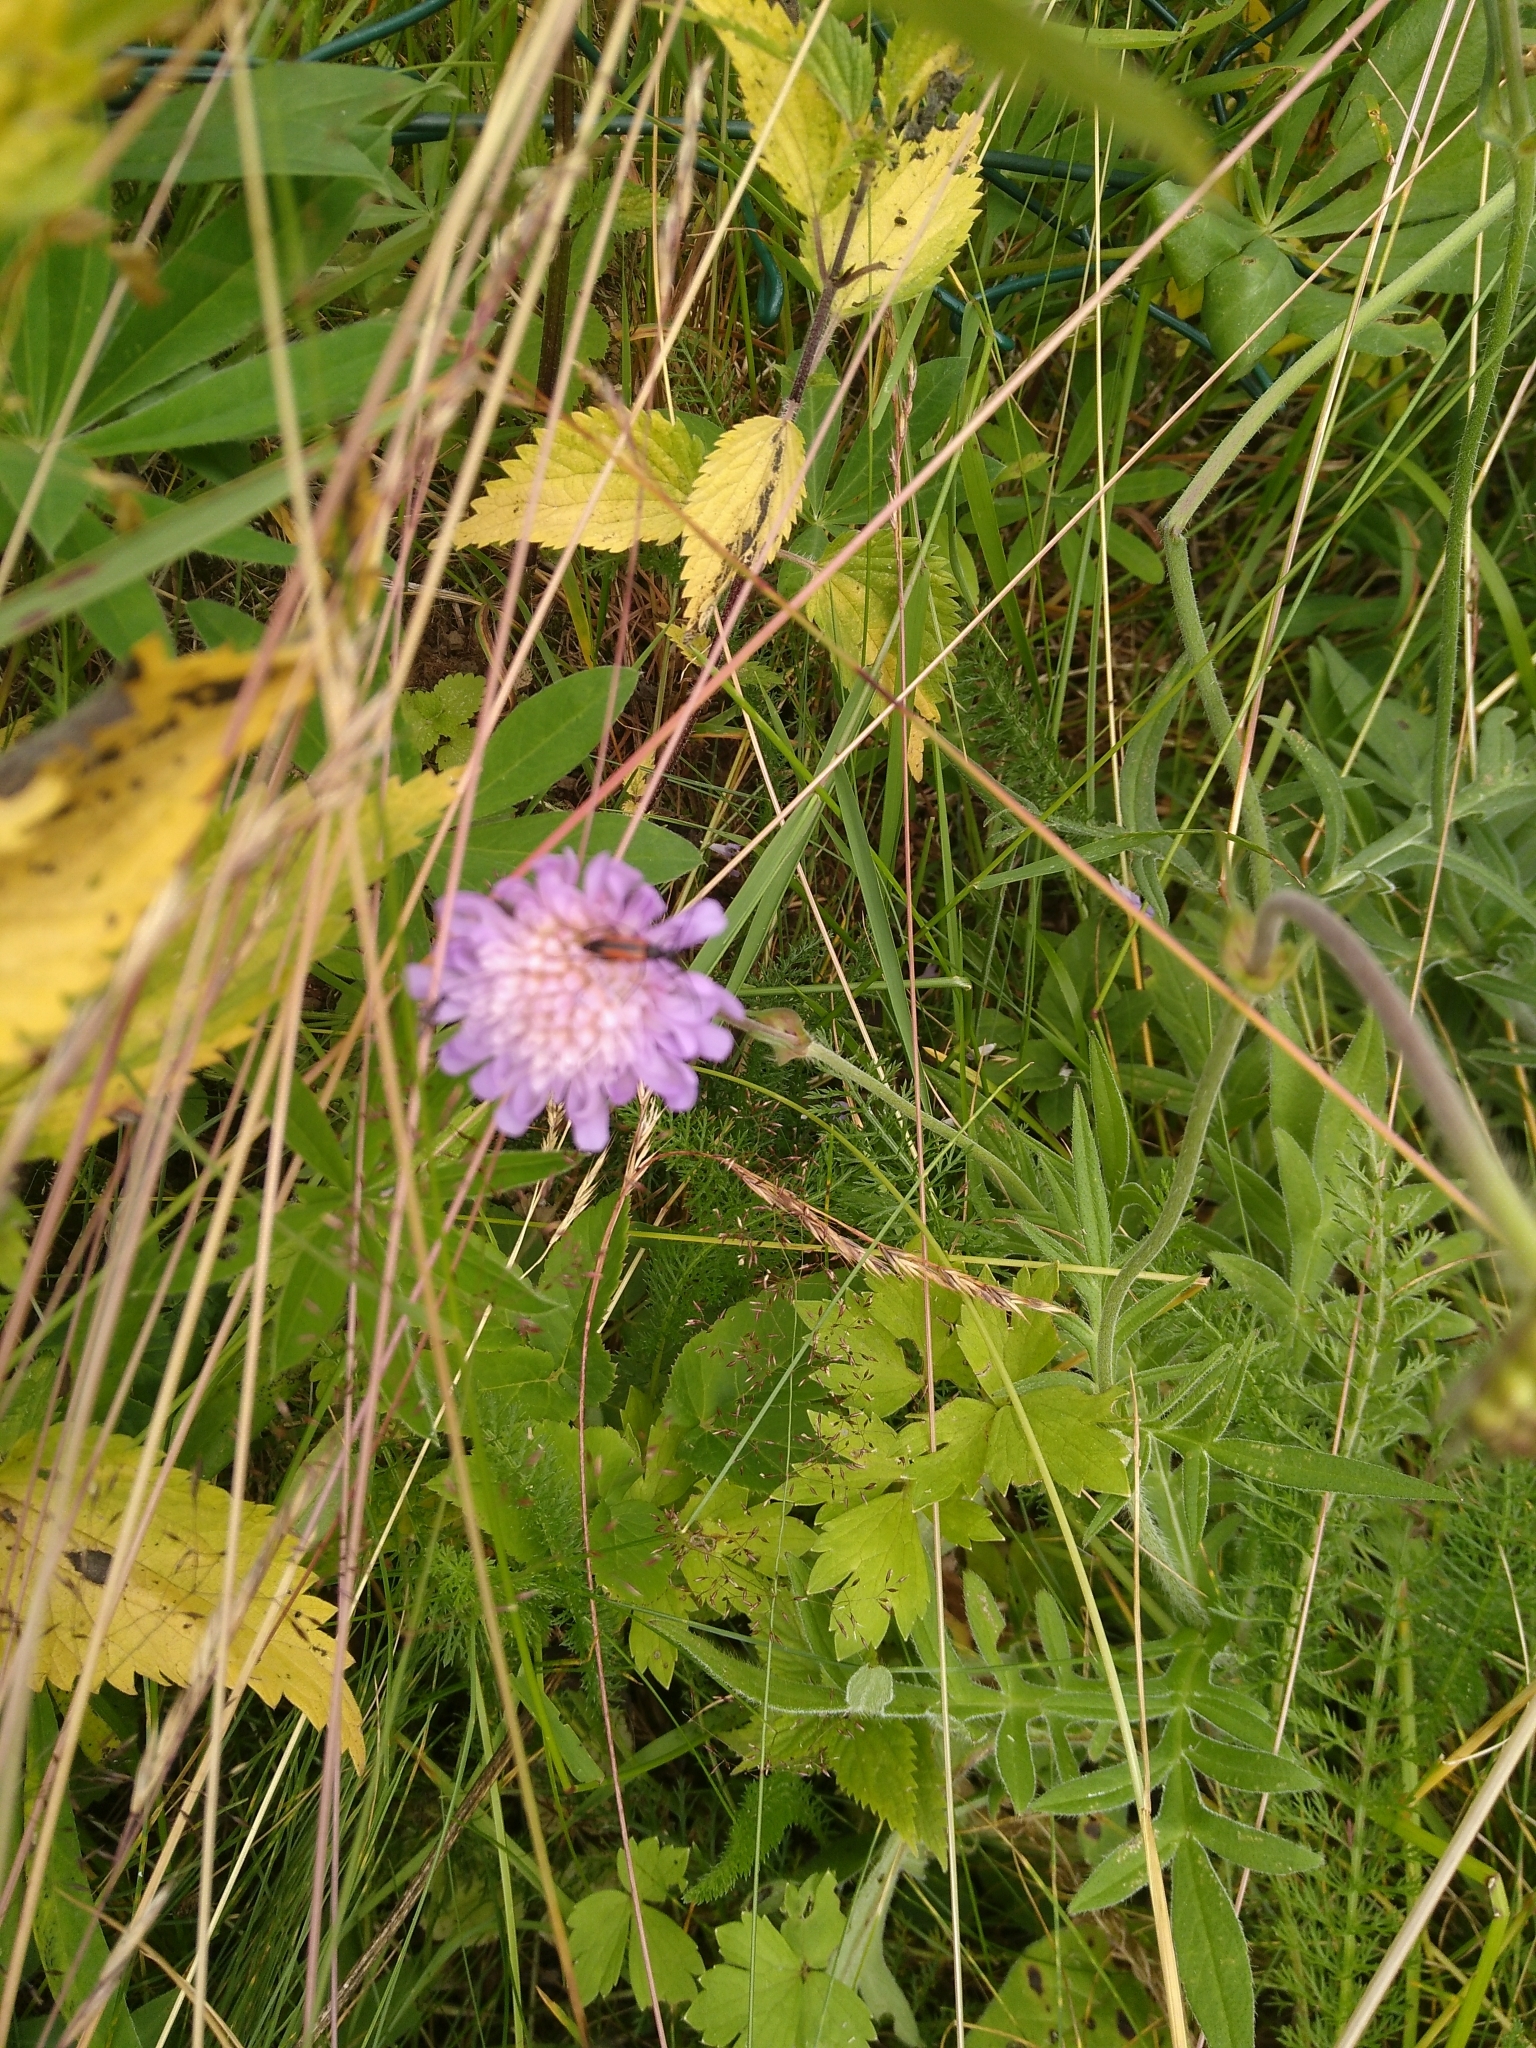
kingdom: Plantae
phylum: Tracheophyta
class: Magnoliopsida
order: Dipsacales
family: Caprifoliaceae
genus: Knautia
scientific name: Knautia arvensis
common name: Field scabiosa
